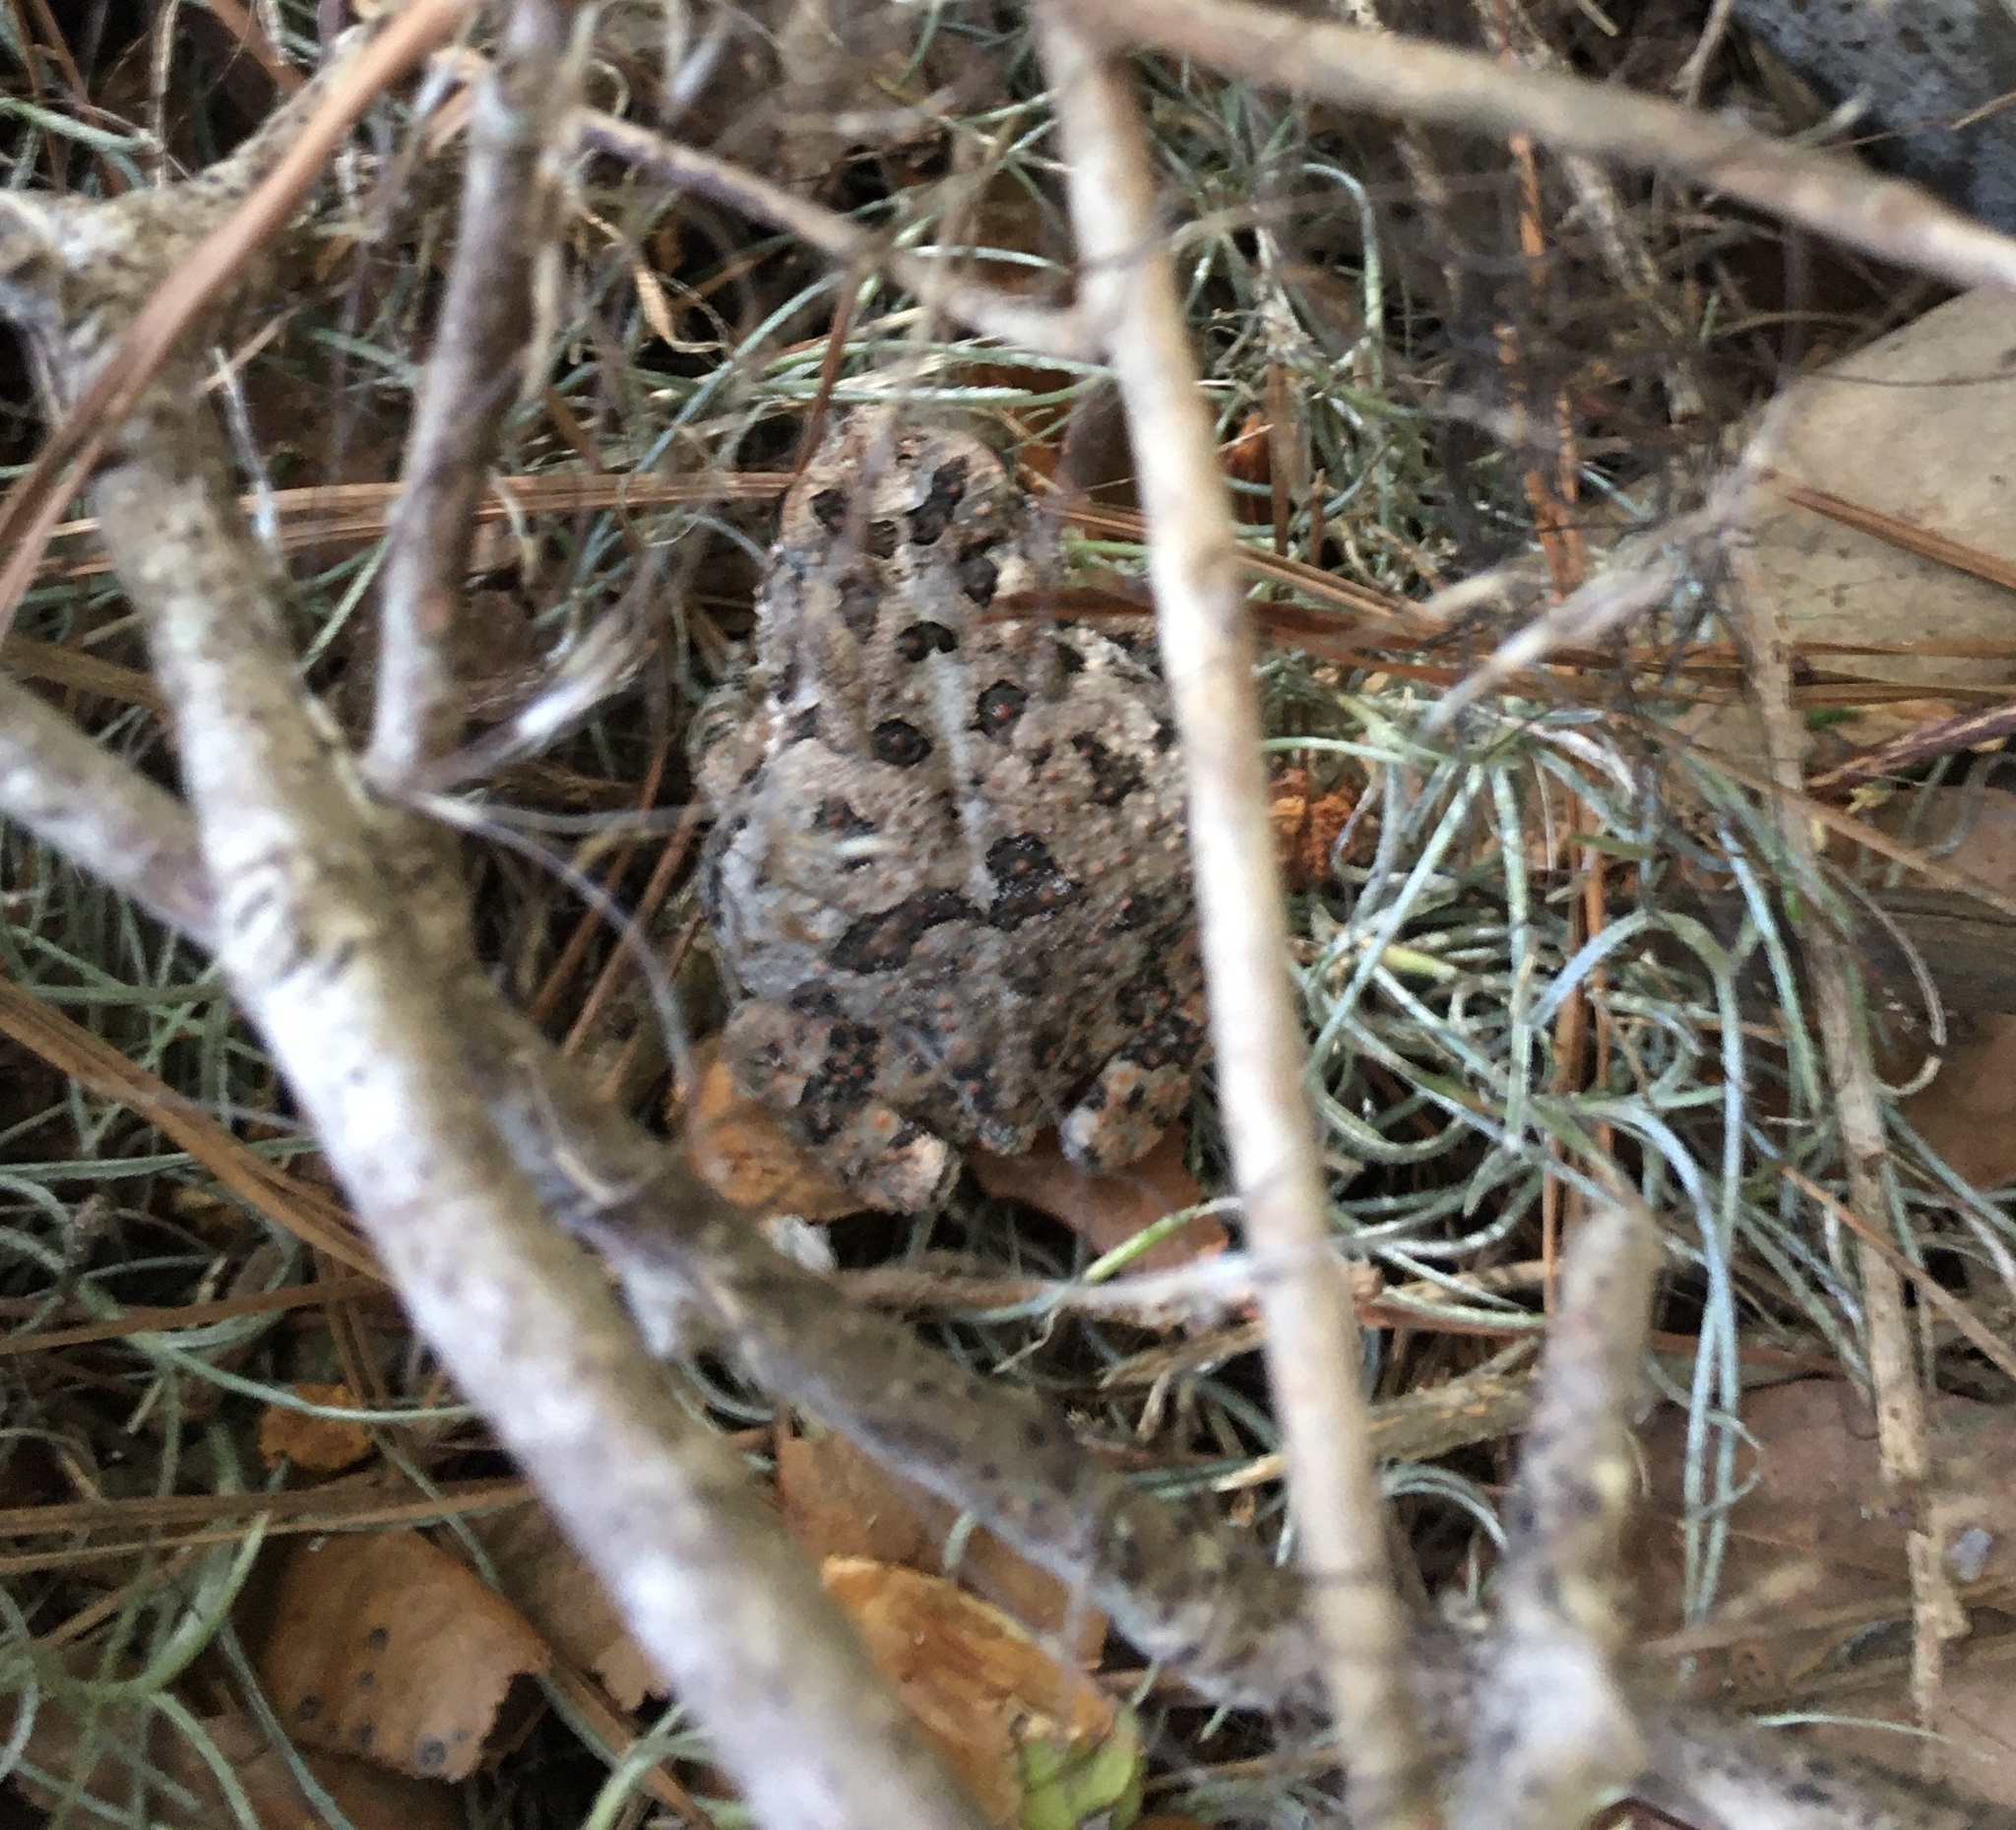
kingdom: Animalia
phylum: Chordata
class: Amphibia
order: Anura
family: Bufonidae
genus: Anaxyrus
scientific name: Anaxyrus terrestris
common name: Southern toad
